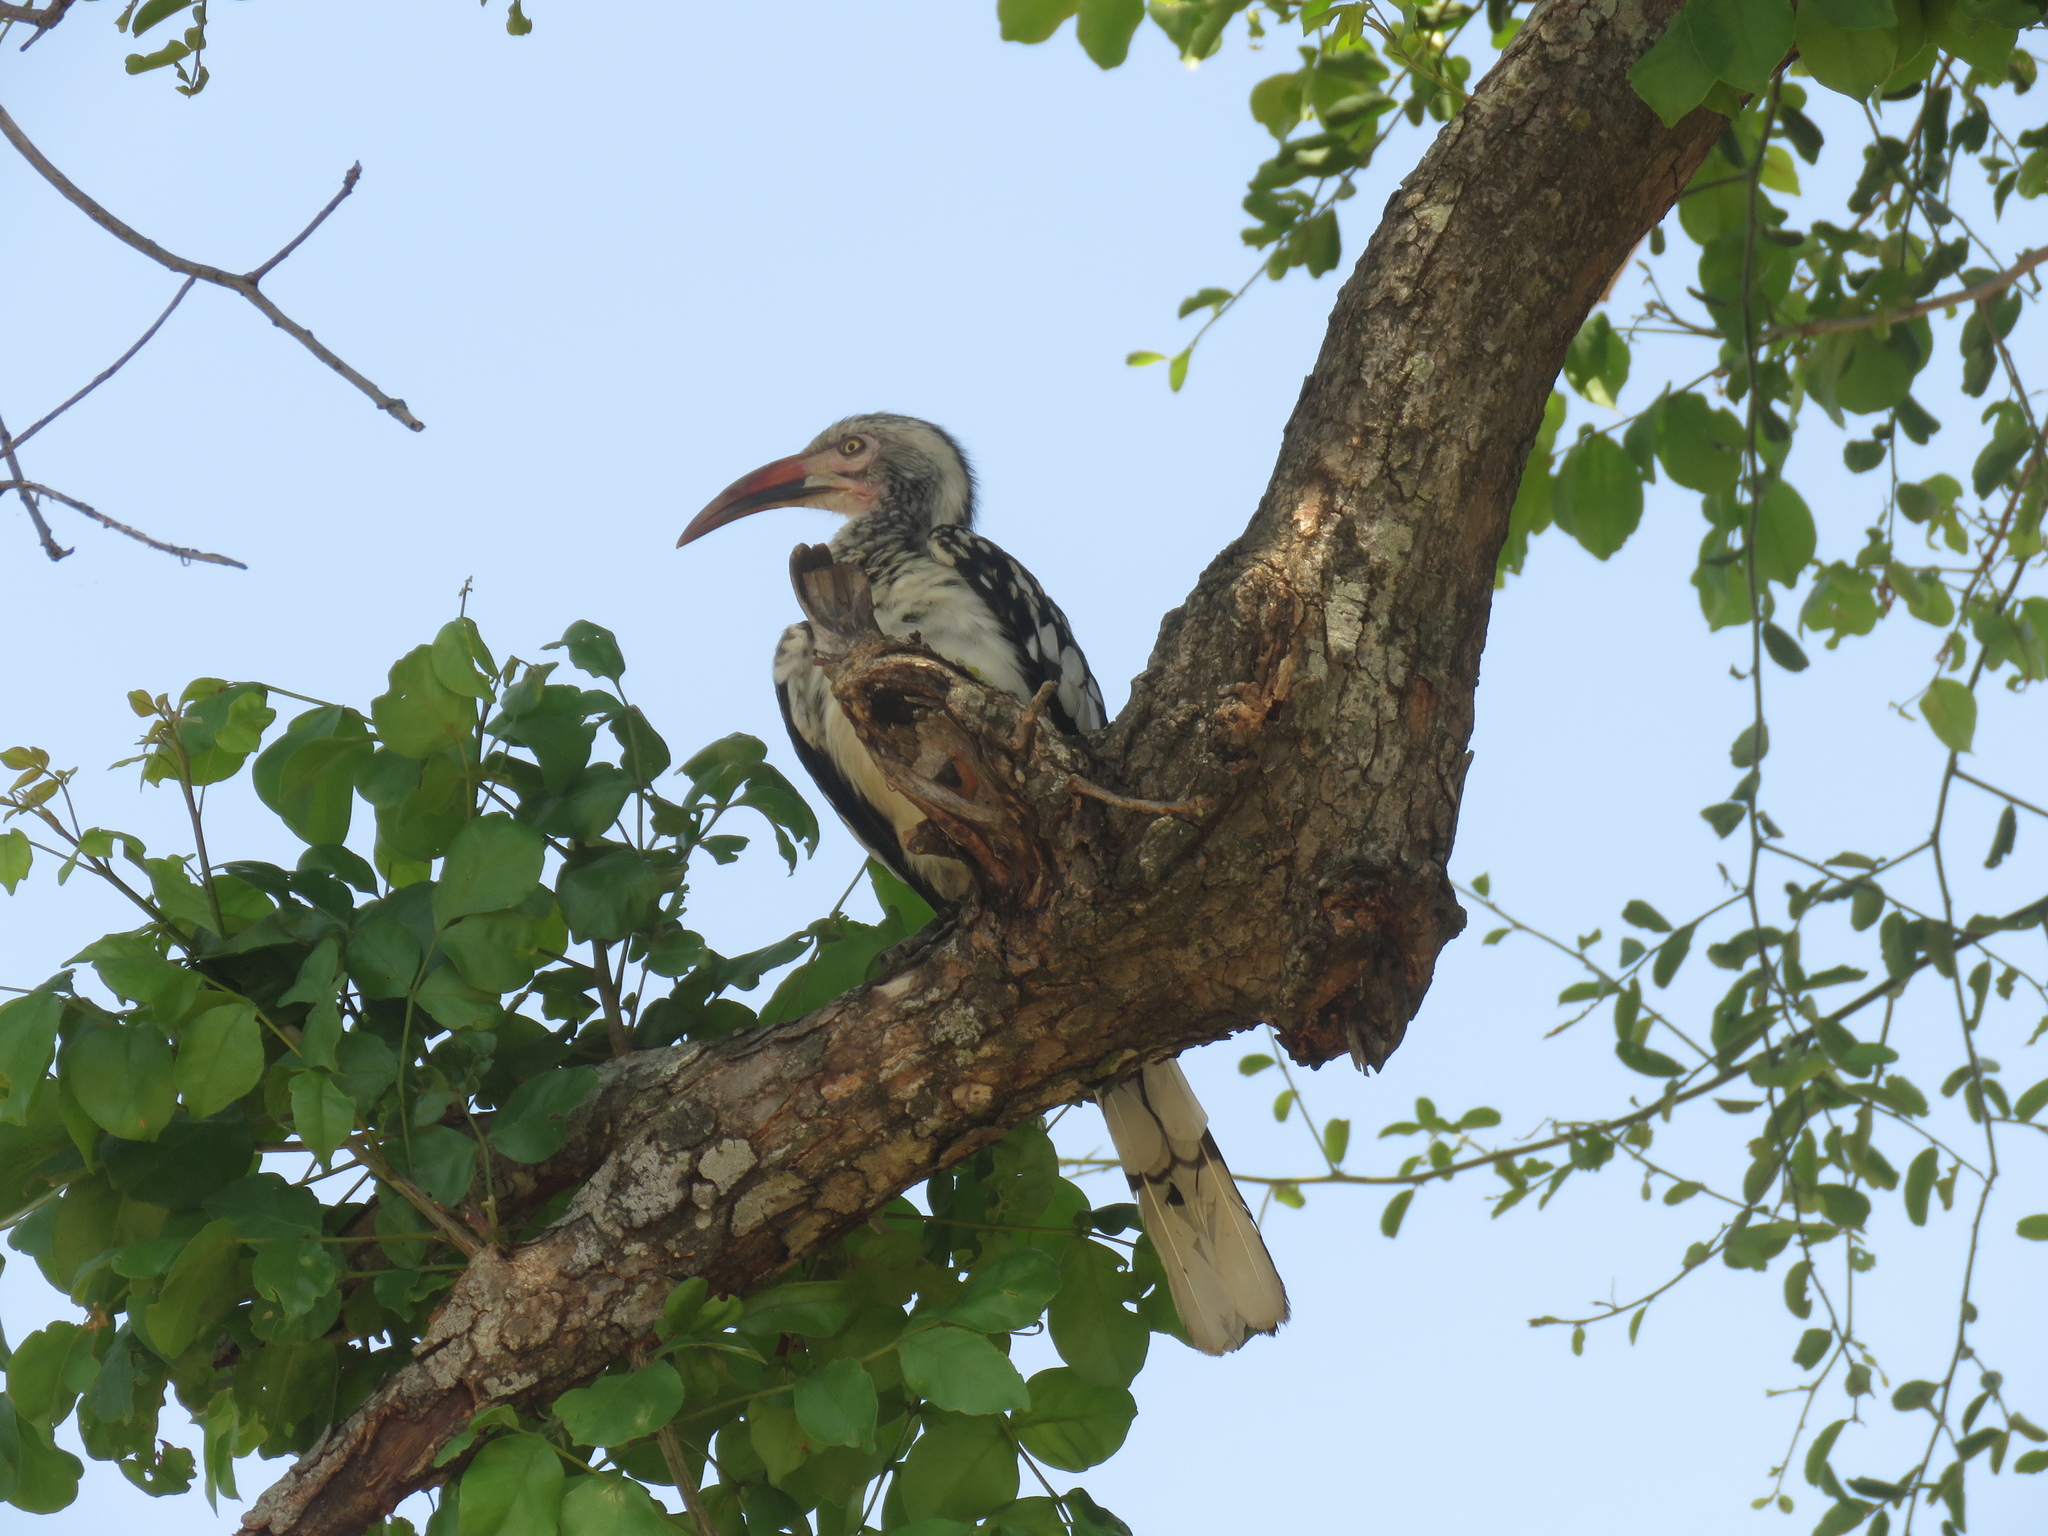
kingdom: Animalia
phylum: Chordata
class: Aves
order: Bucerotiformes
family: Bucerotidae
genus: Tockus
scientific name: Tockus rufirostris
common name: Southern red-billed hornbill
